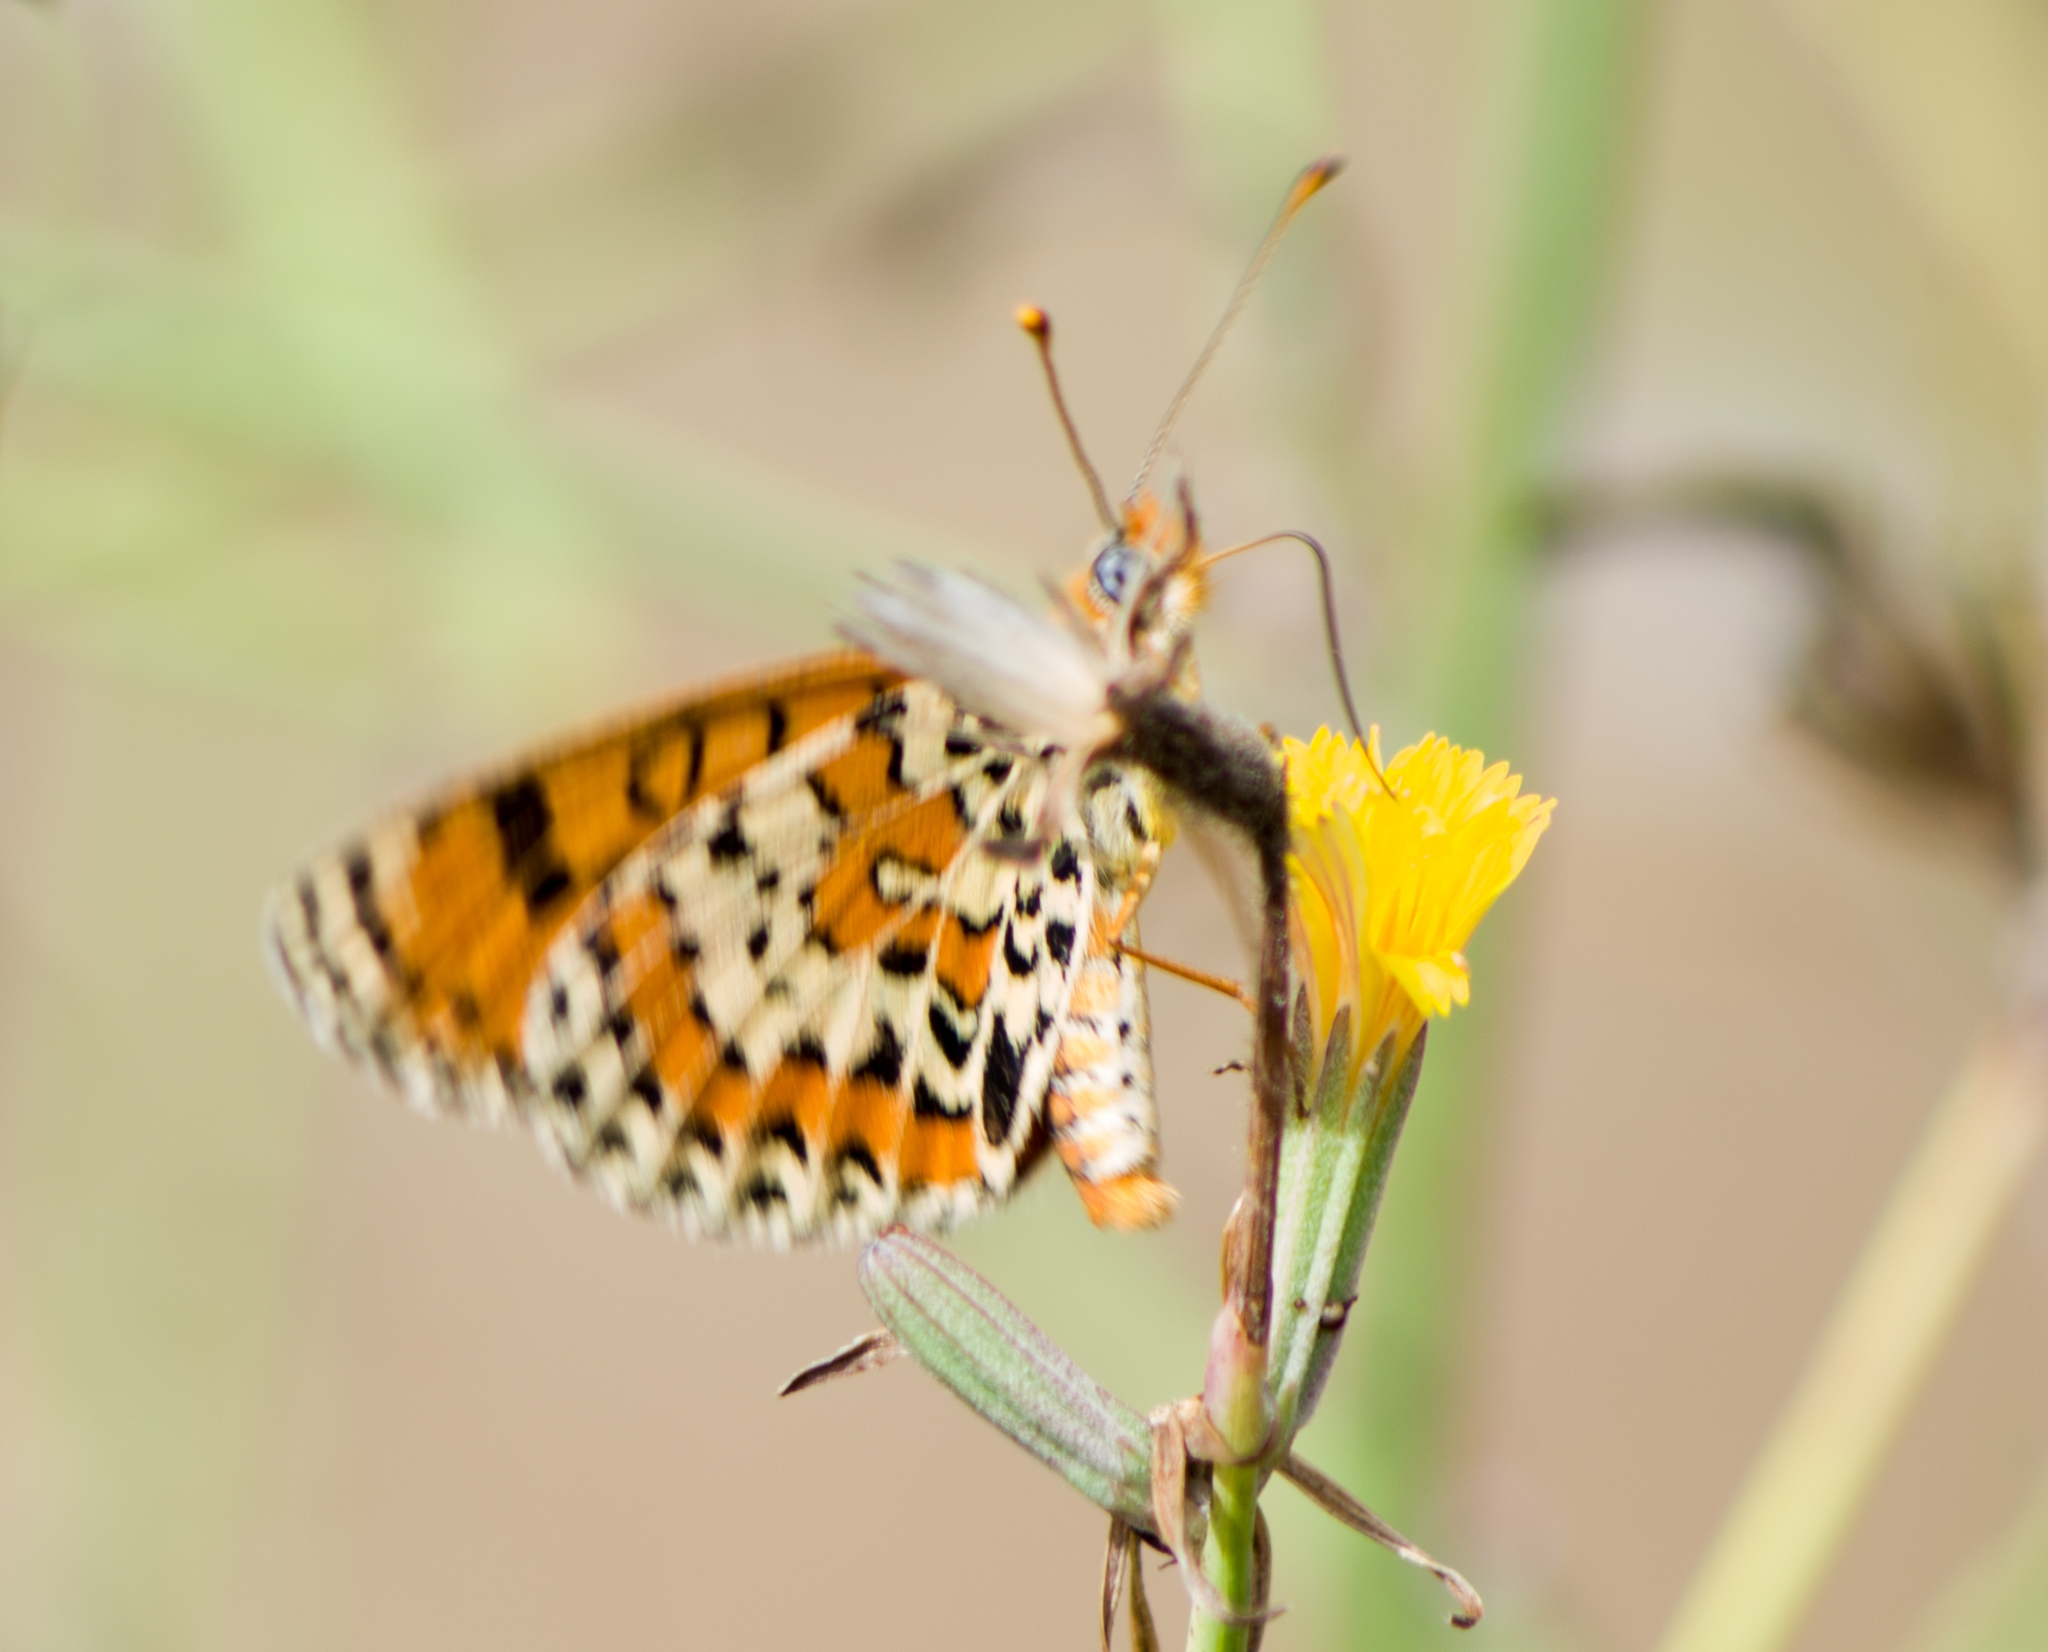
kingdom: Animalia
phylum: Arthropoda
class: Insecta
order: Lepidoptera
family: Nymphalidae
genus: Melitaea
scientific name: Melitaea didyma
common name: Spotted fritillary
